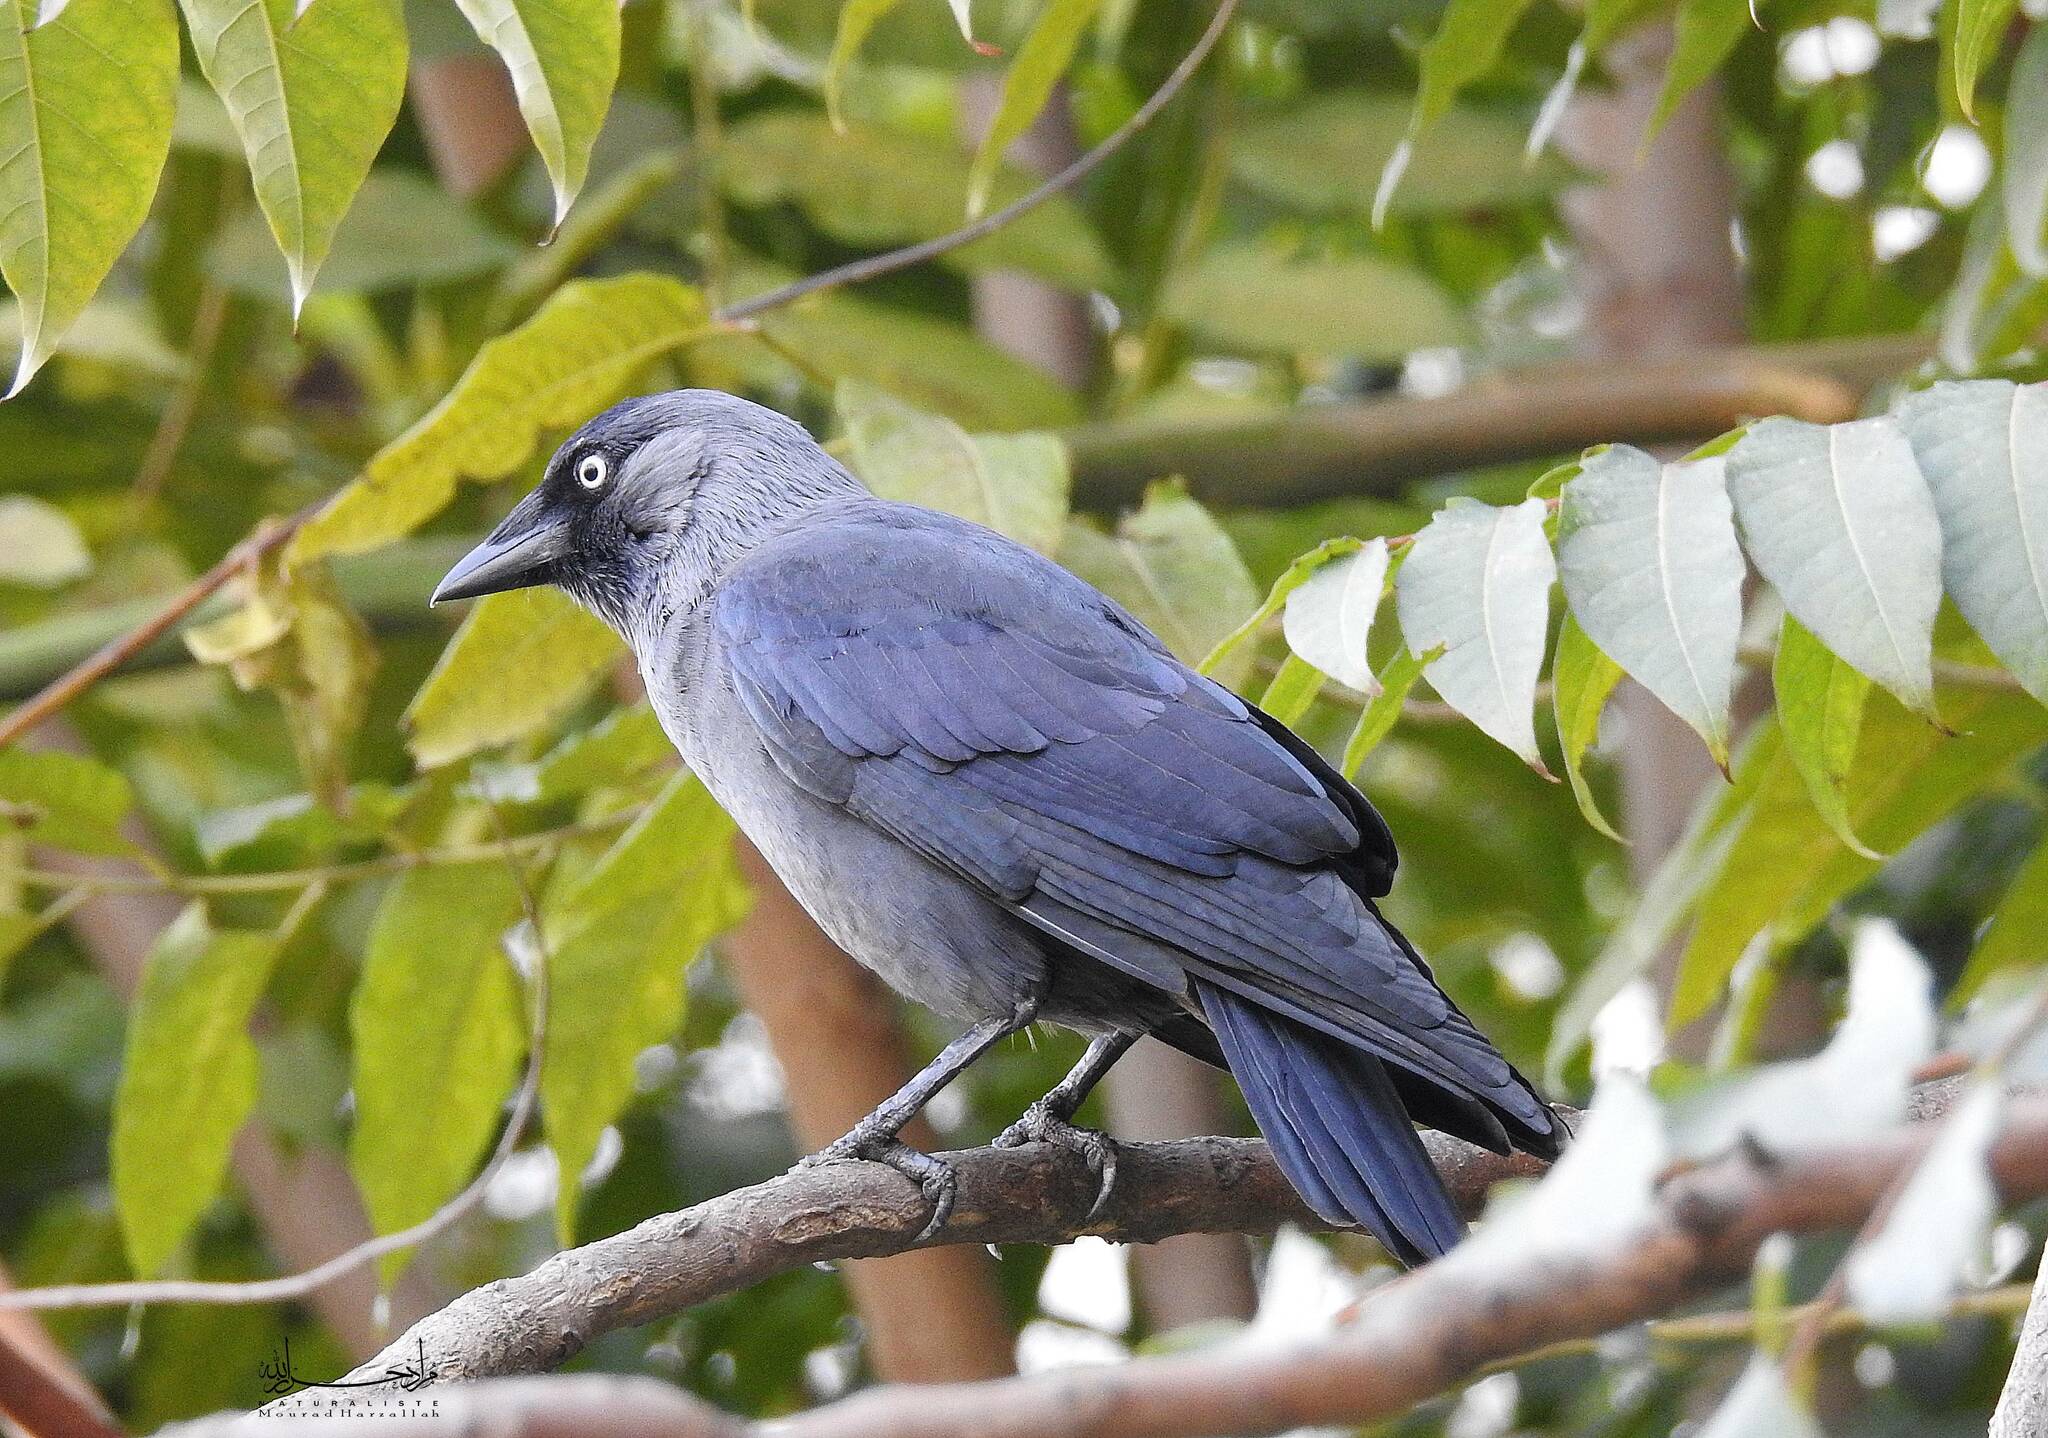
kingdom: Animalia
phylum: Chordata
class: Aves
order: Passeriformes
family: Corvidae
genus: Coloeus
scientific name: Coloeus monedula
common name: Western jackdaw
